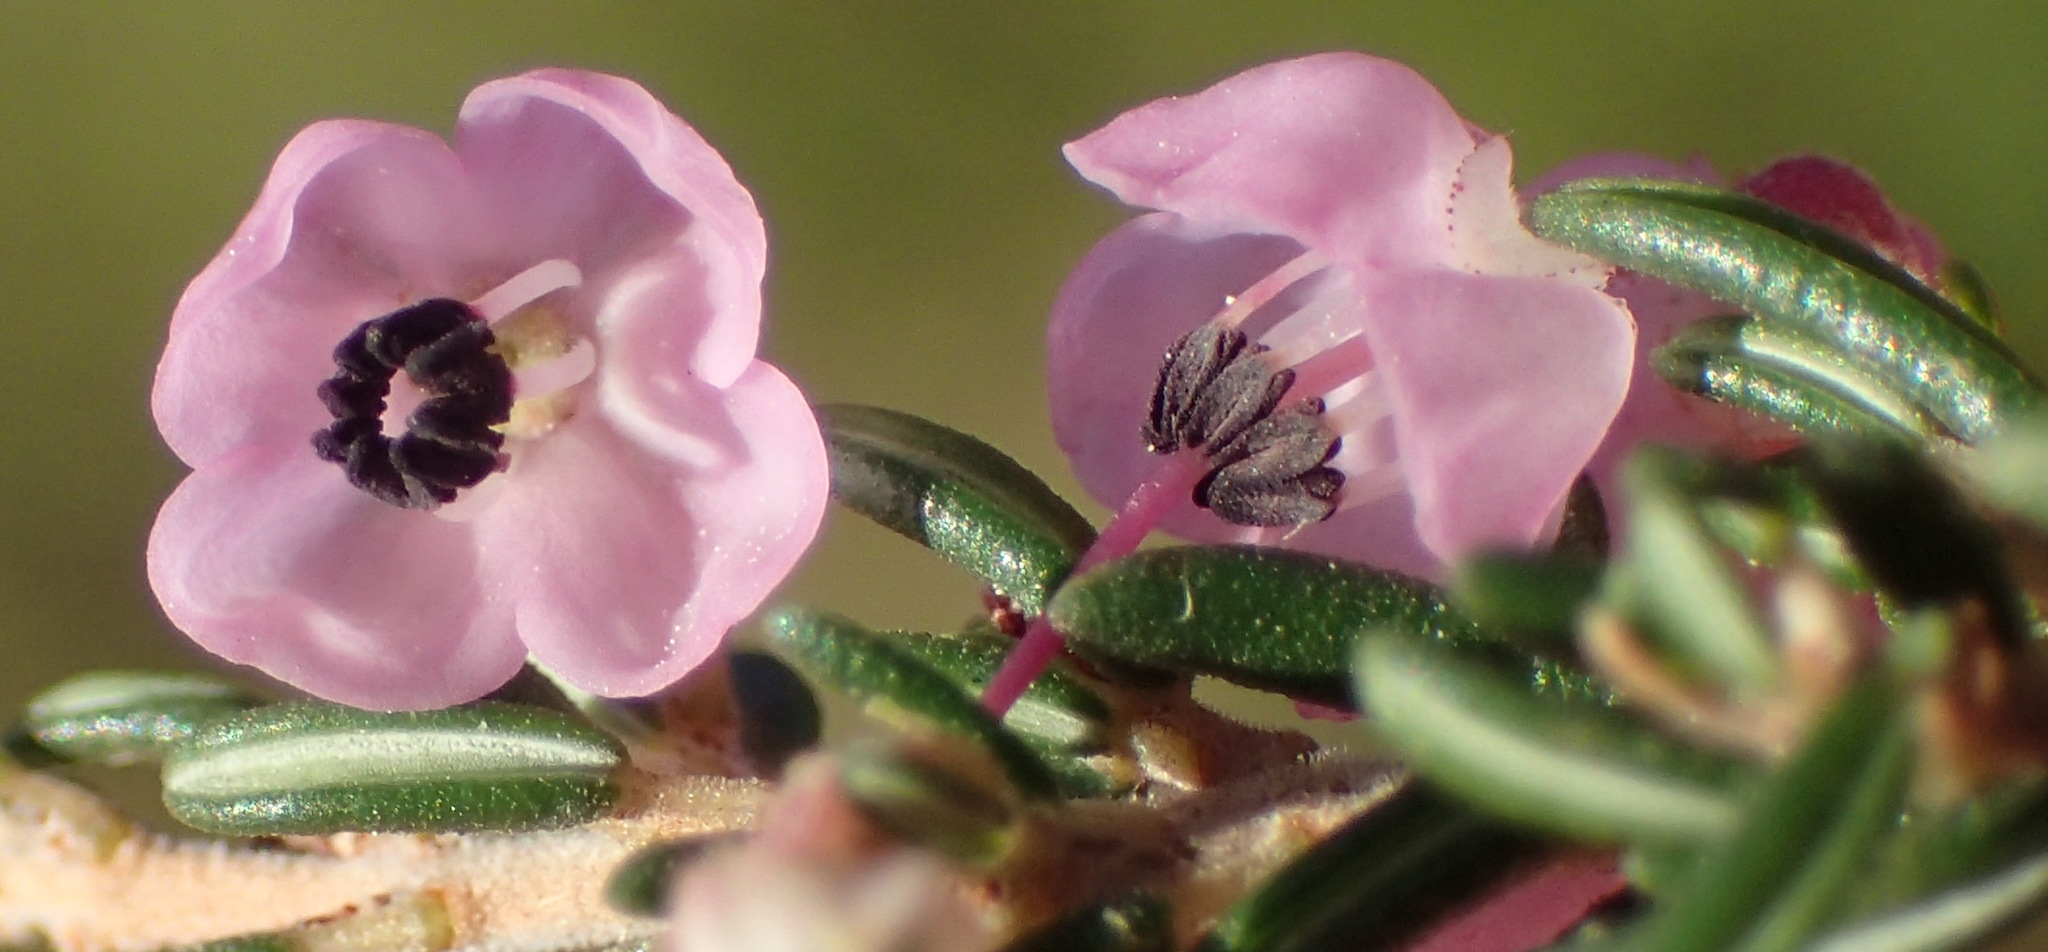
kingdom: Plantae
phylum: Tracheophyta
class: Magnoliopsida
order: Ericales
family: Ericaceae
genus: Erica
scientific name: Erica canaliculata
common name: Hairy grey heather
